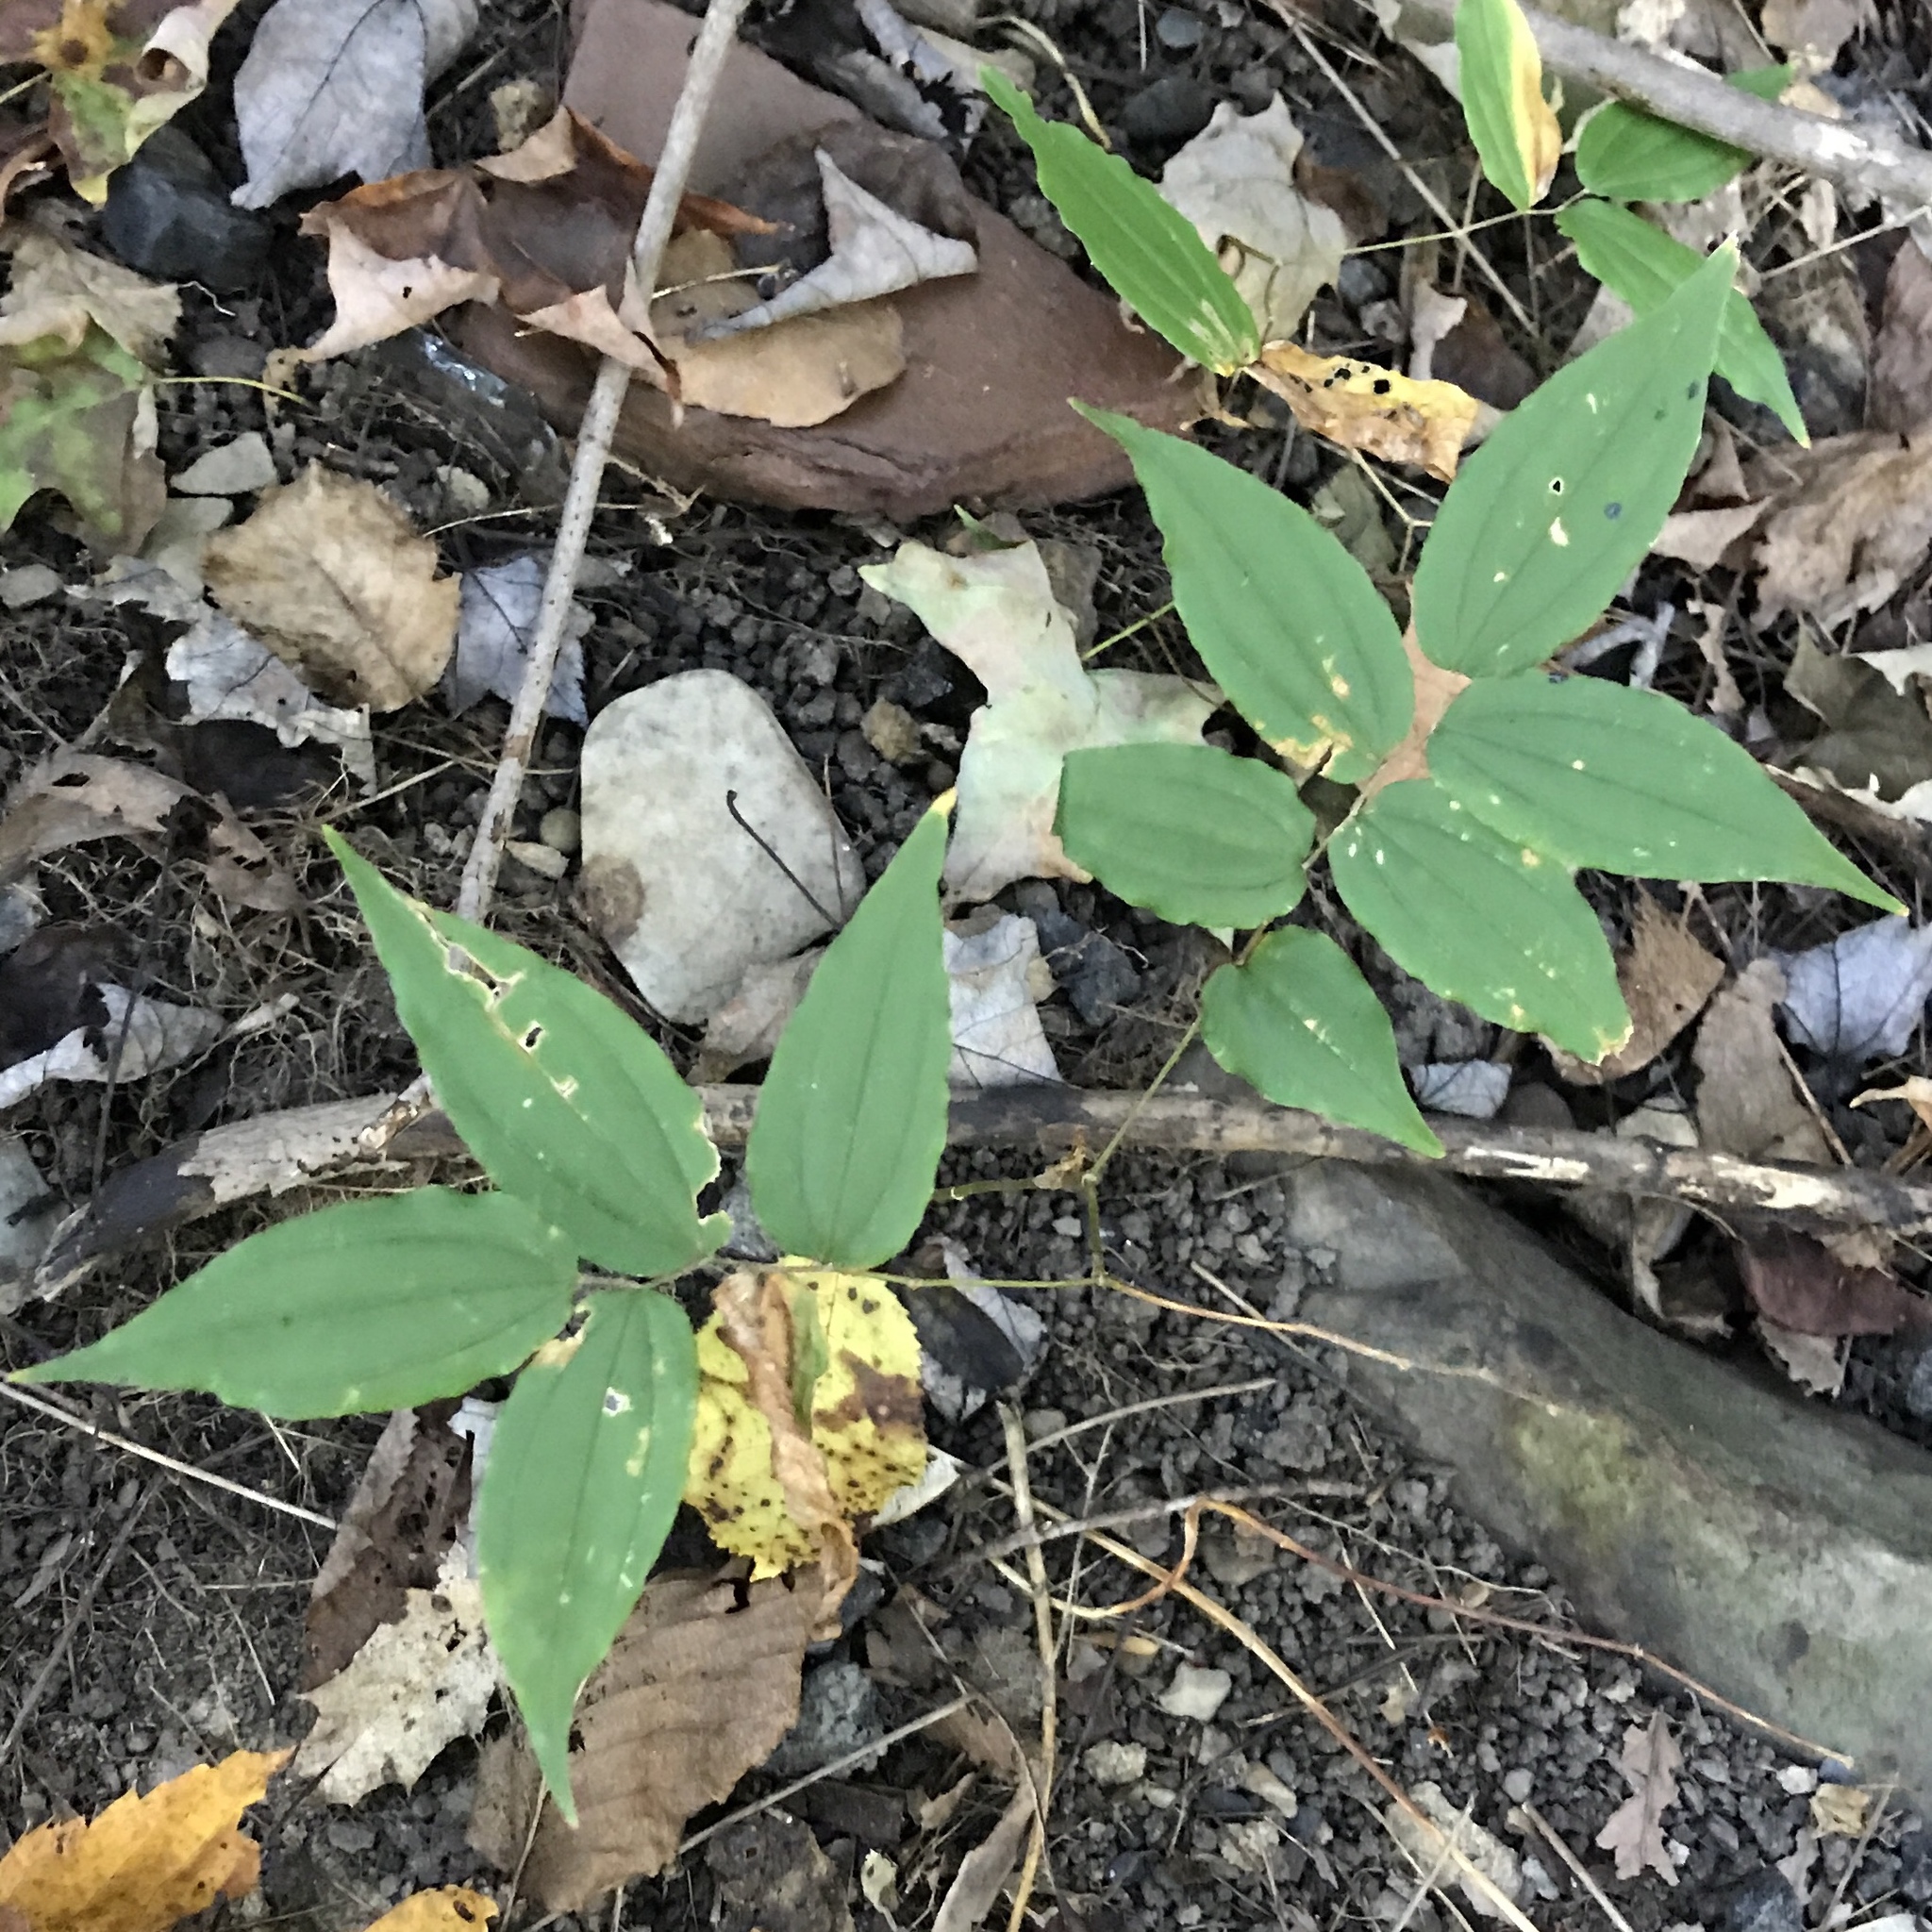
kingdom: Plantae
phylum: Tracheophyta
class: Liliopsida
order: Liliales
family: Liliaceae
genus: Prosartes
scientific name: Prosartes lanuginosa
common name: Hairy mandarin
